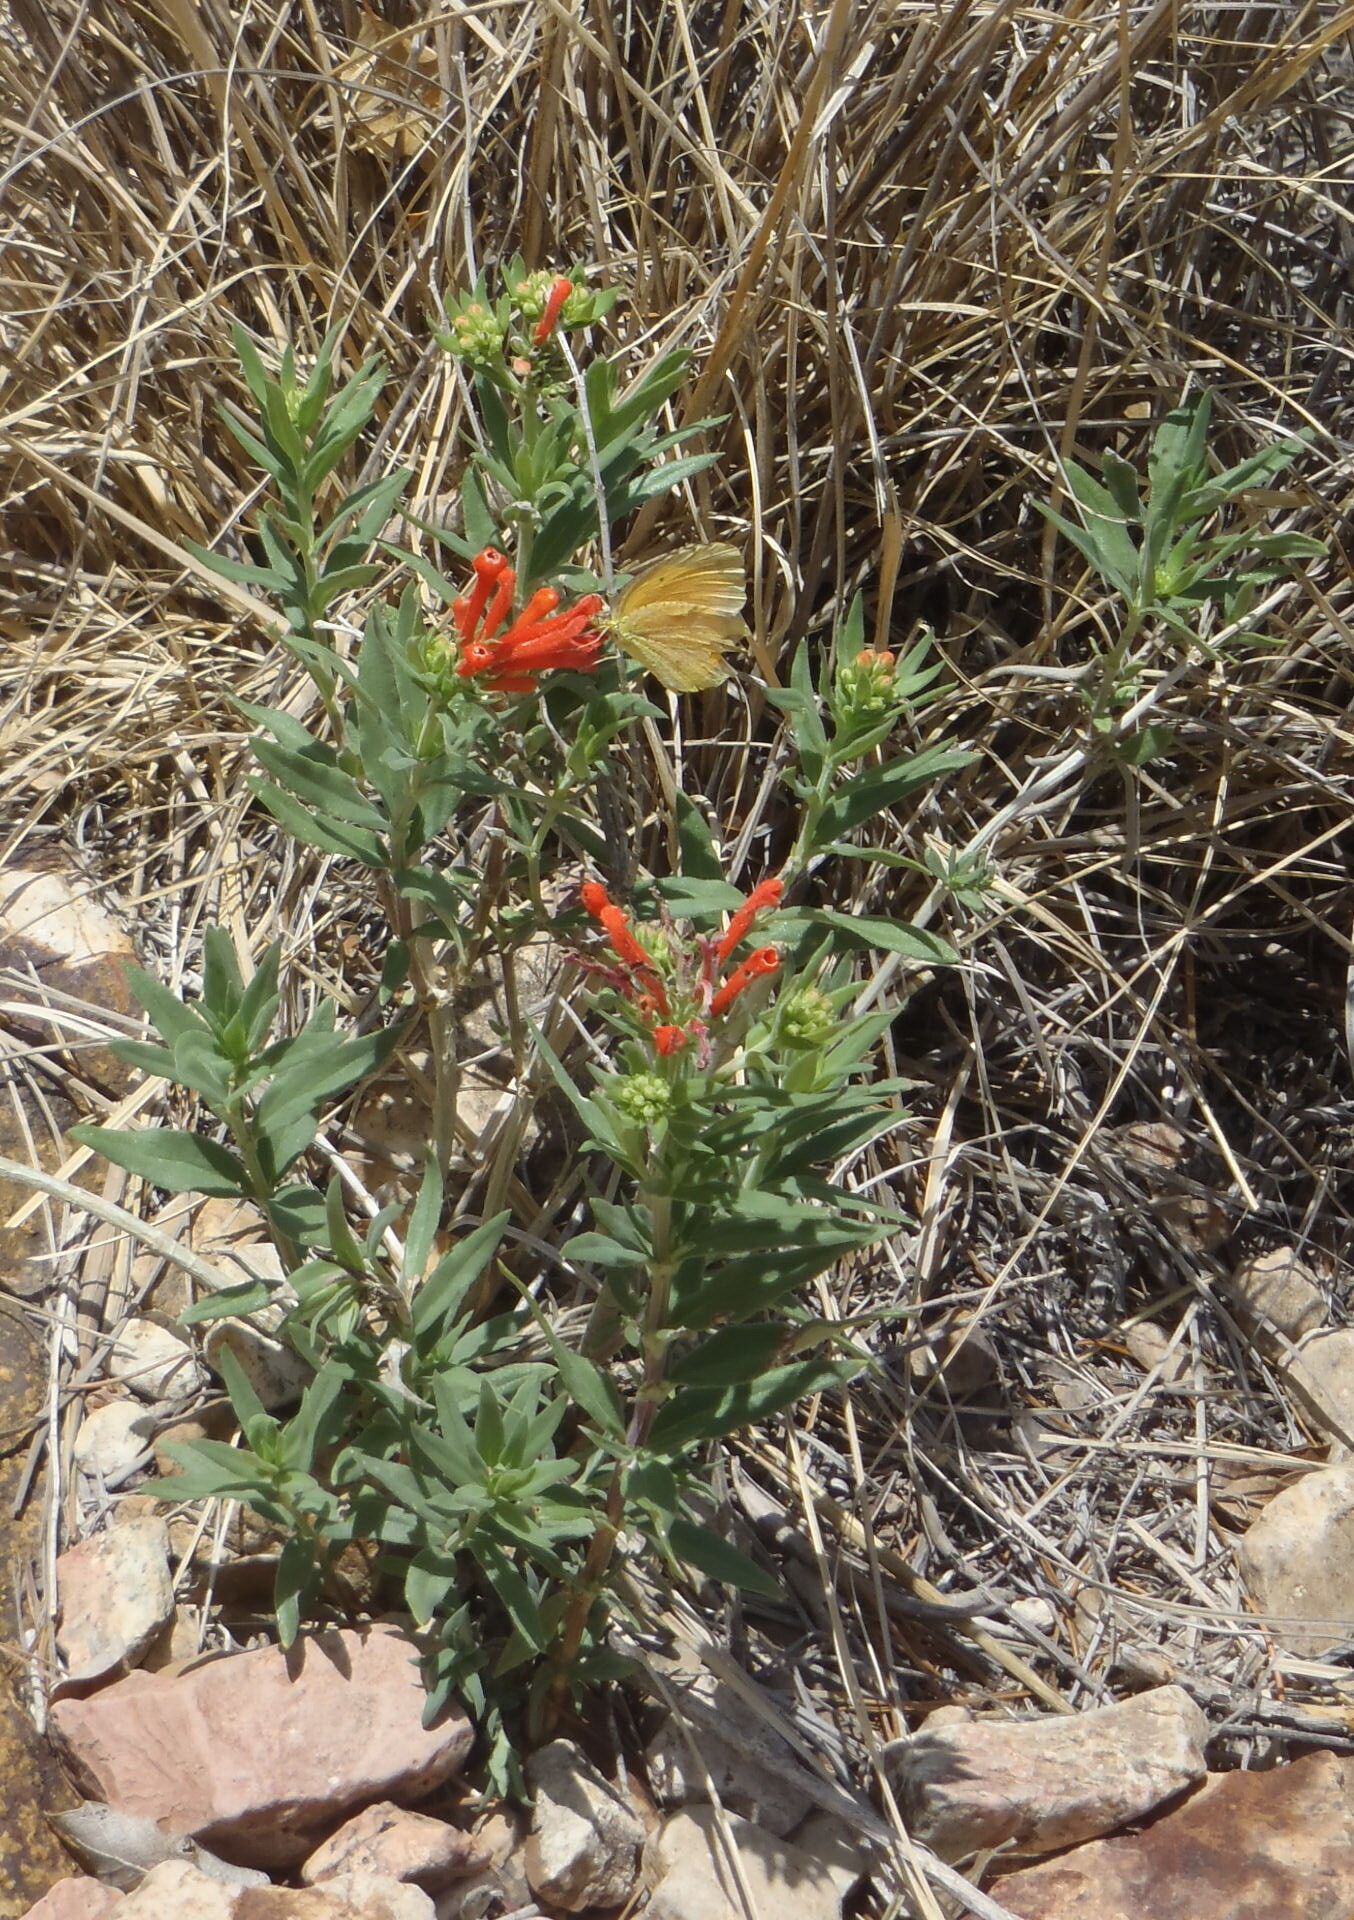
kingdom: Plantae
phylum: Tracheophyta
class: Magnoliopsida
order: Gentianales
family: Rubiaceae
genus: Bouvardia
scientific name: Bouvardia ternifolia
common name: Scarlet bouvardia
